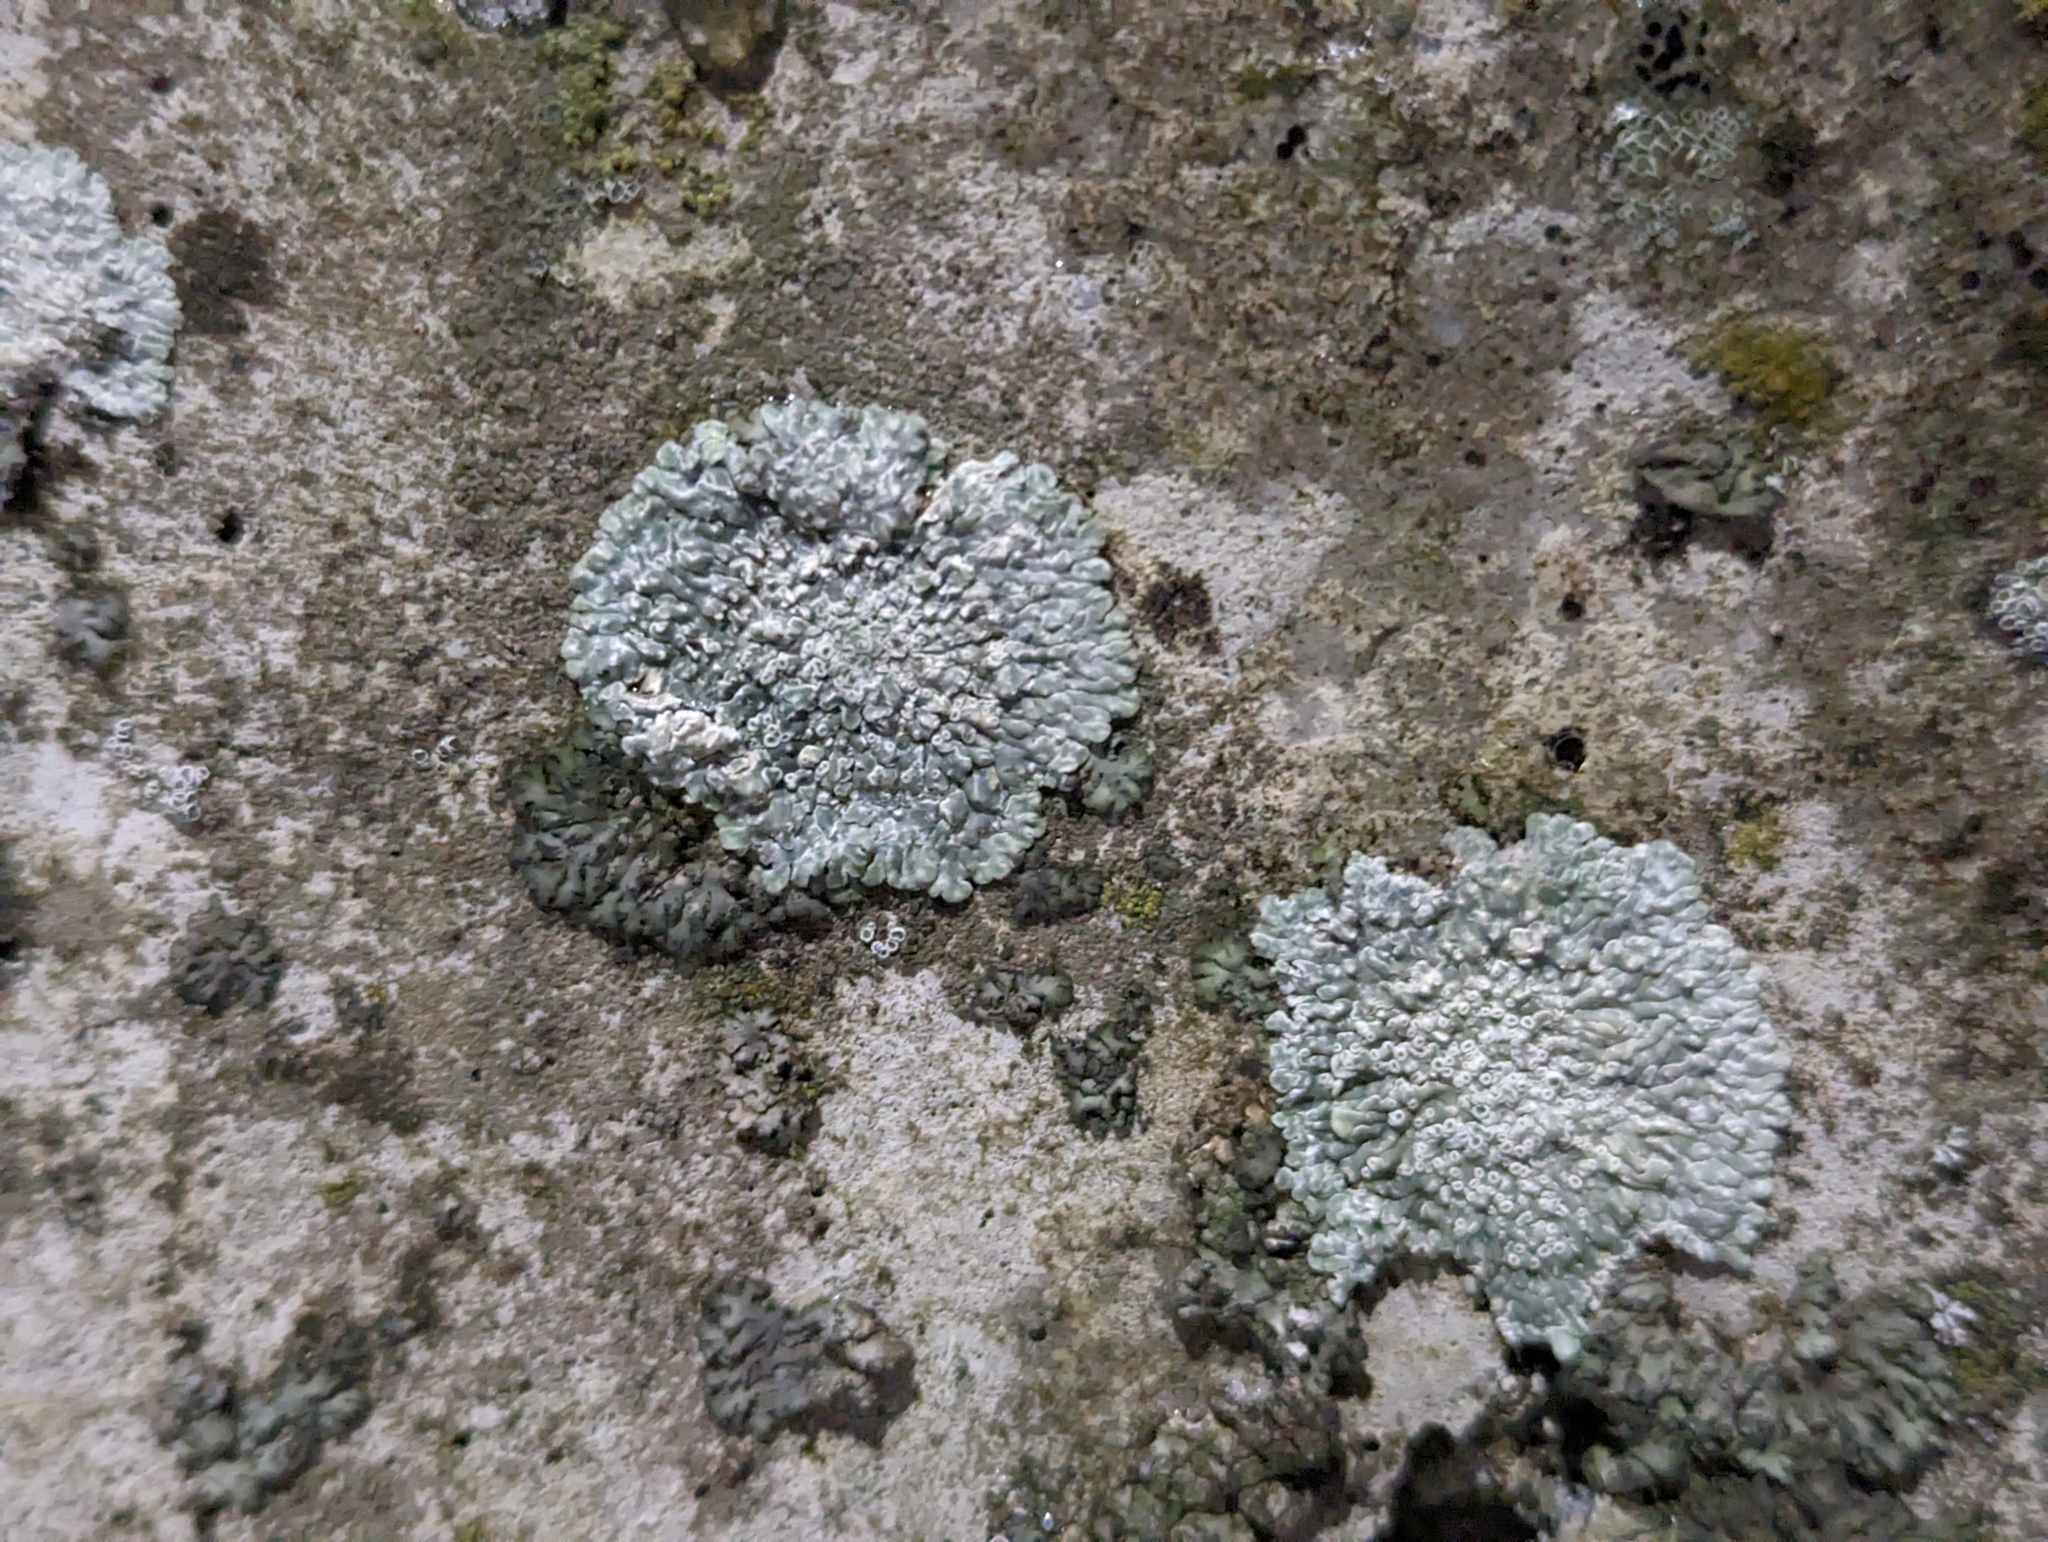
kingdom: Fungi
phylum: Ascomycota
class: Lecanoromycetes
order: Lecanorales
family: Lecanoraceae
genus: Protoparmeliopsis
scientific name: Protoparmeliopsis muralis
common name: Stonewall rim lichen
